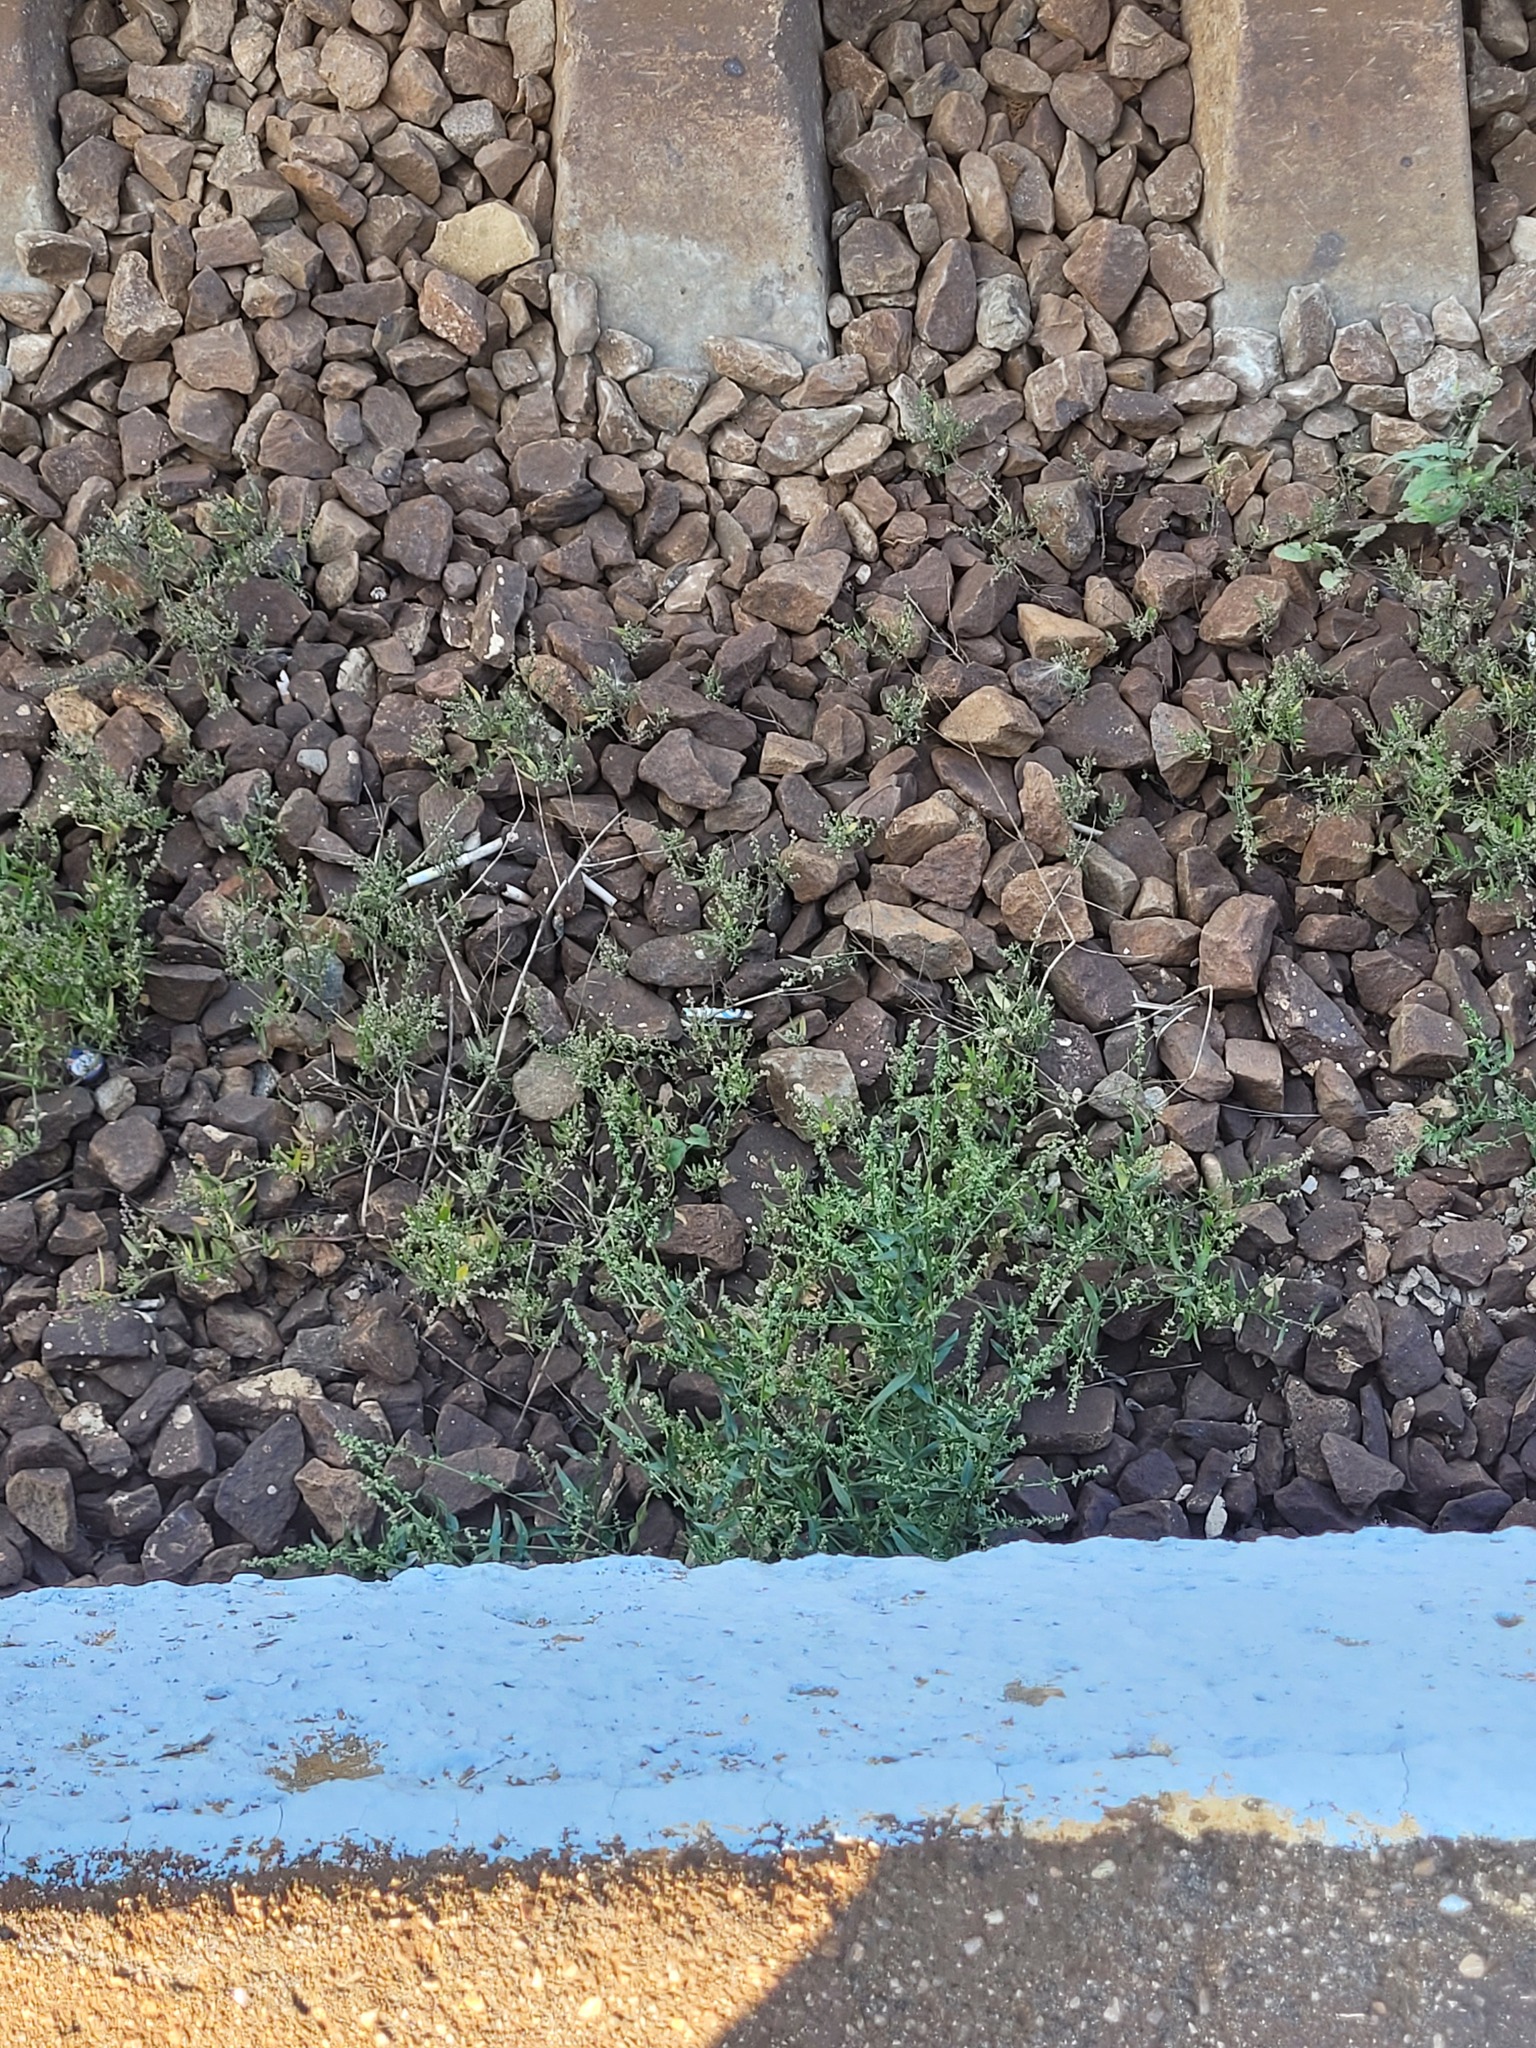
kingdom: Plantae
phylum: Tracheophyta
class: Magnoliopsida
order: Caryophyllales
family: Amaranthaceae
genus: Atriplex
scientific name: Atriplex patula
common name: Common orache
